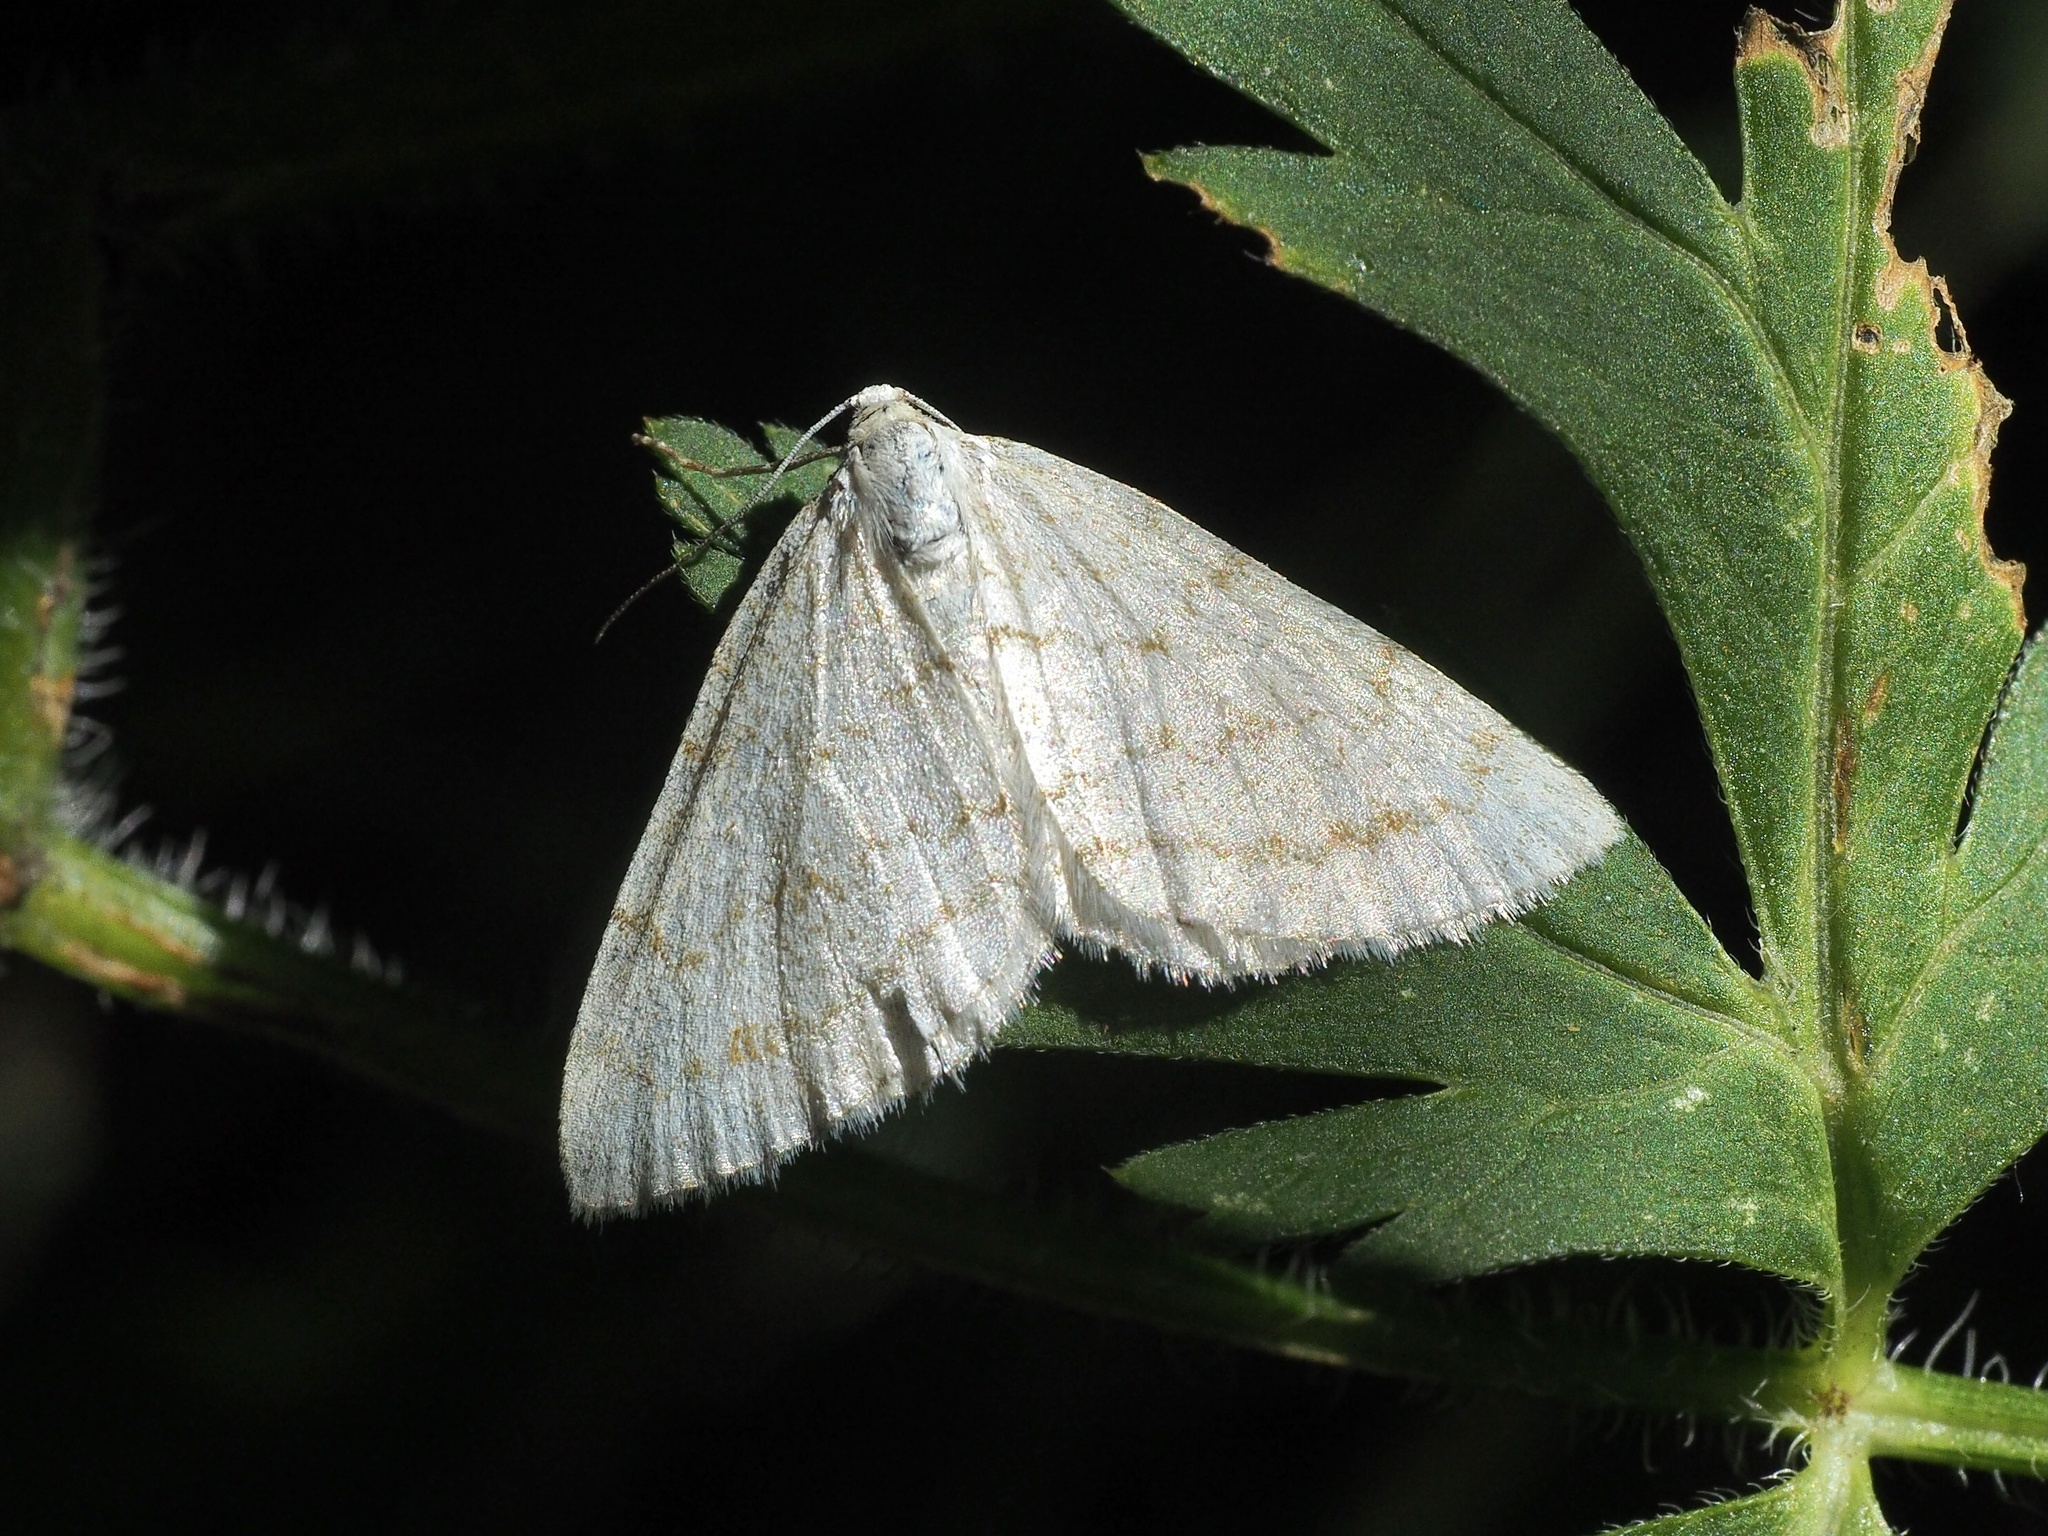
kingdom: Animalia
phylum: Arthropoda
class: Insecta
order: Lepidoptera
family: Geometridae
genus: Perizoma
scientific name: Perizoma verberata
